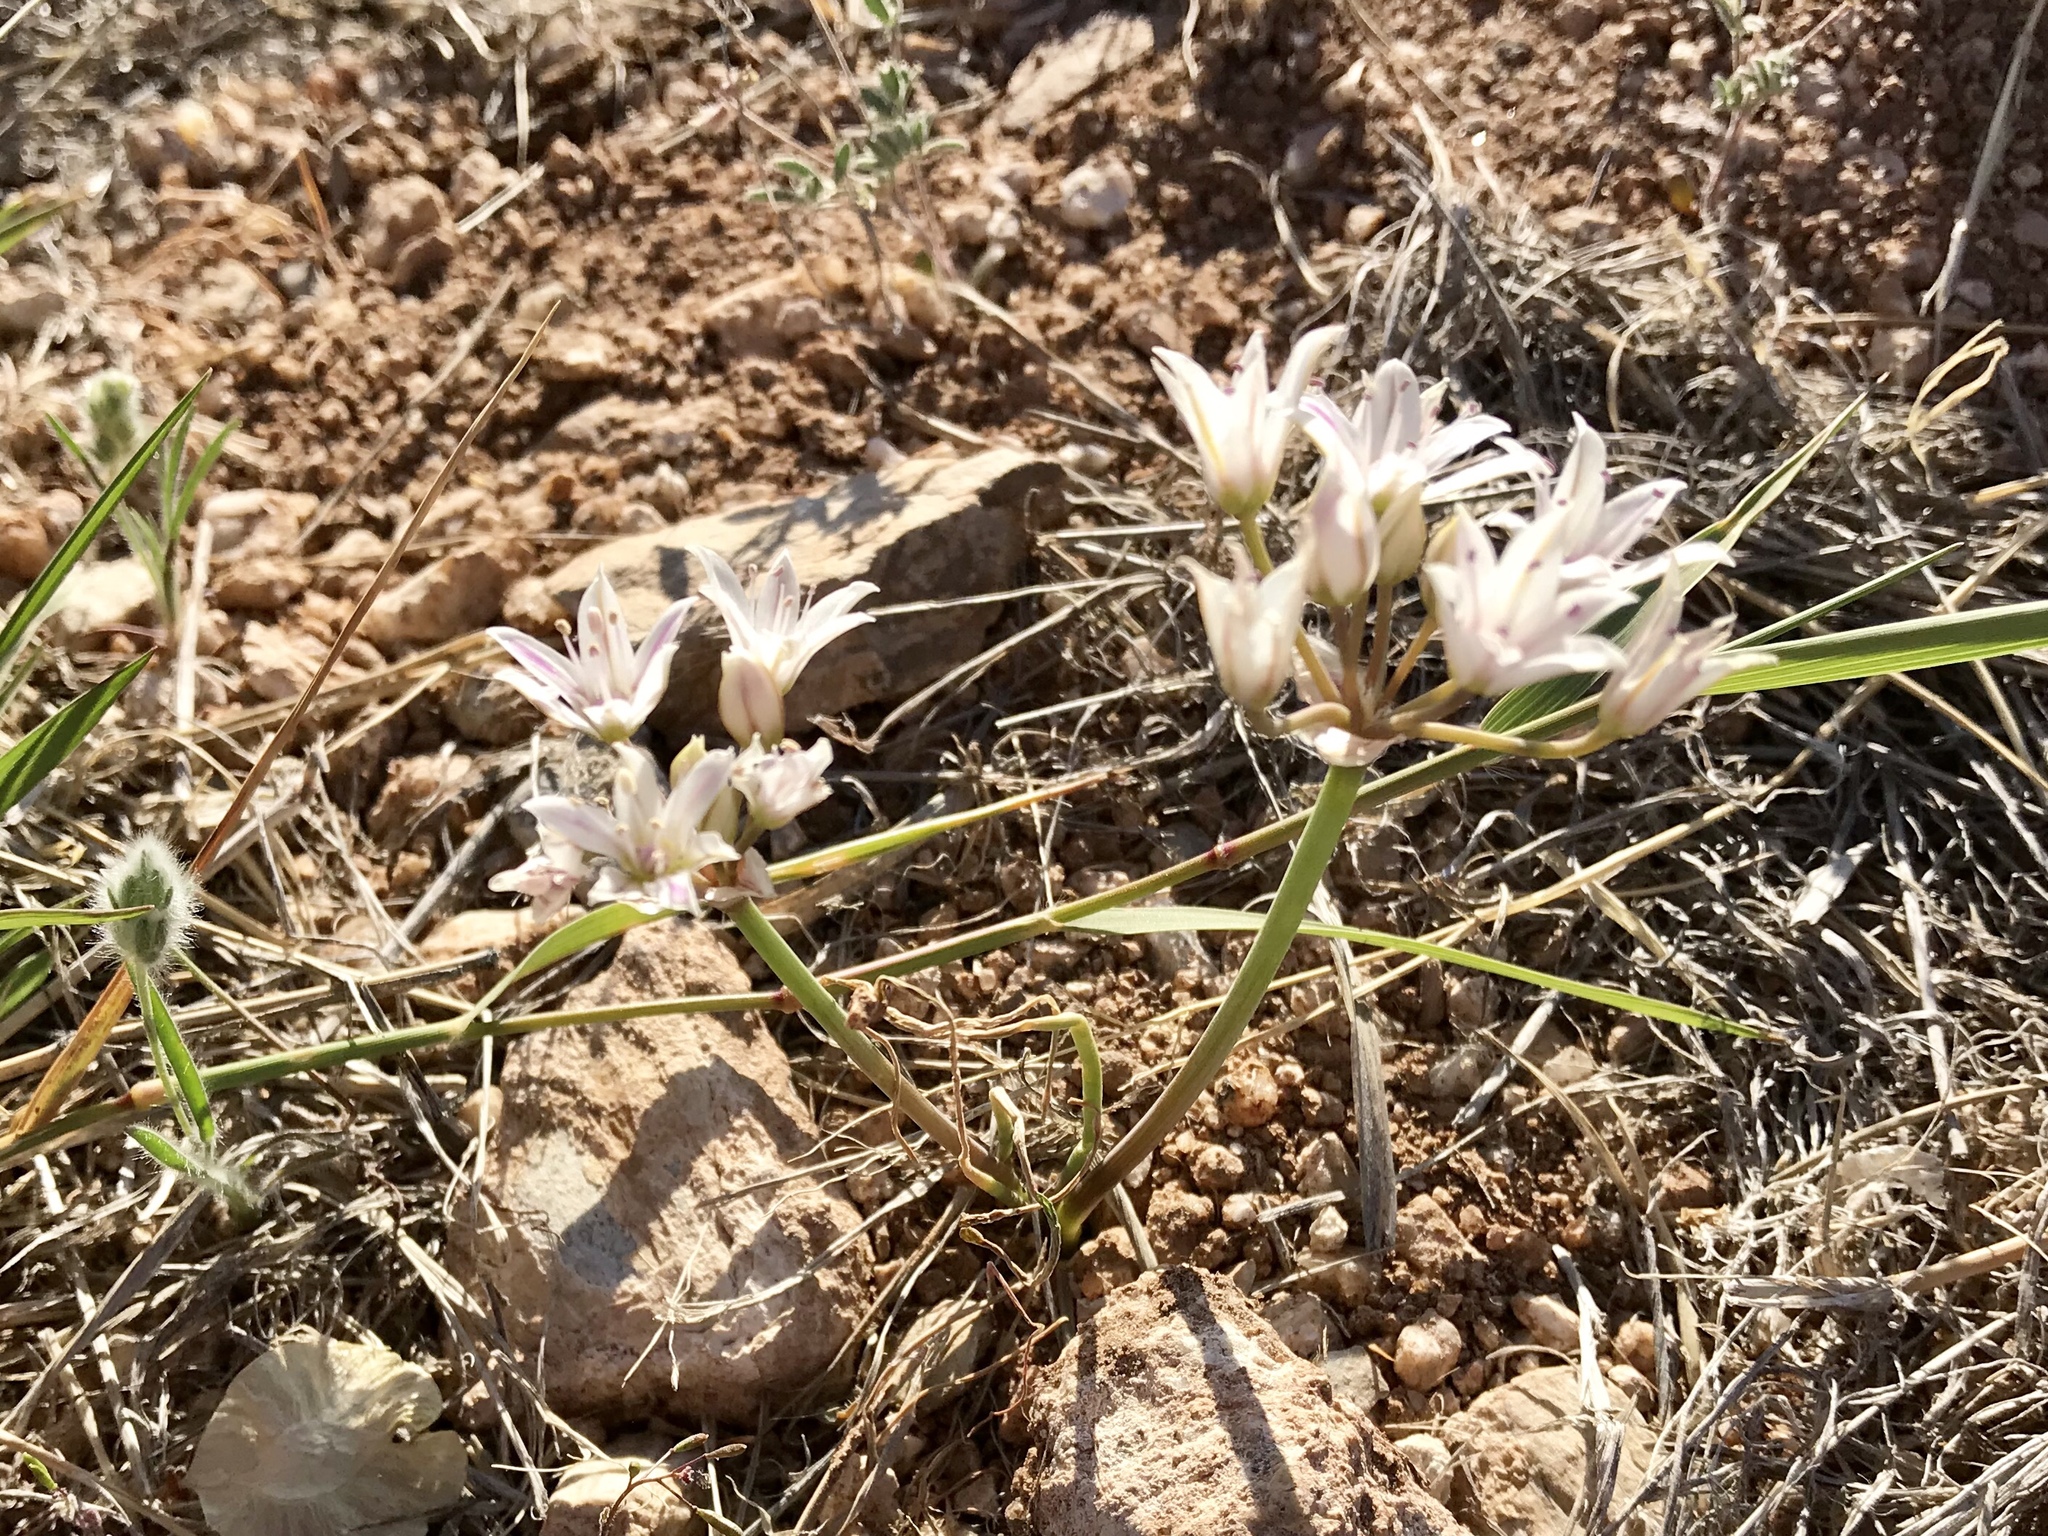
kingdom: Plantae
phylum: Tracheophyta
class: Liliopsida
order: Asparagales
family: Amaryllidaceae
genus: Allium
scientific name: Allium macropetalum
